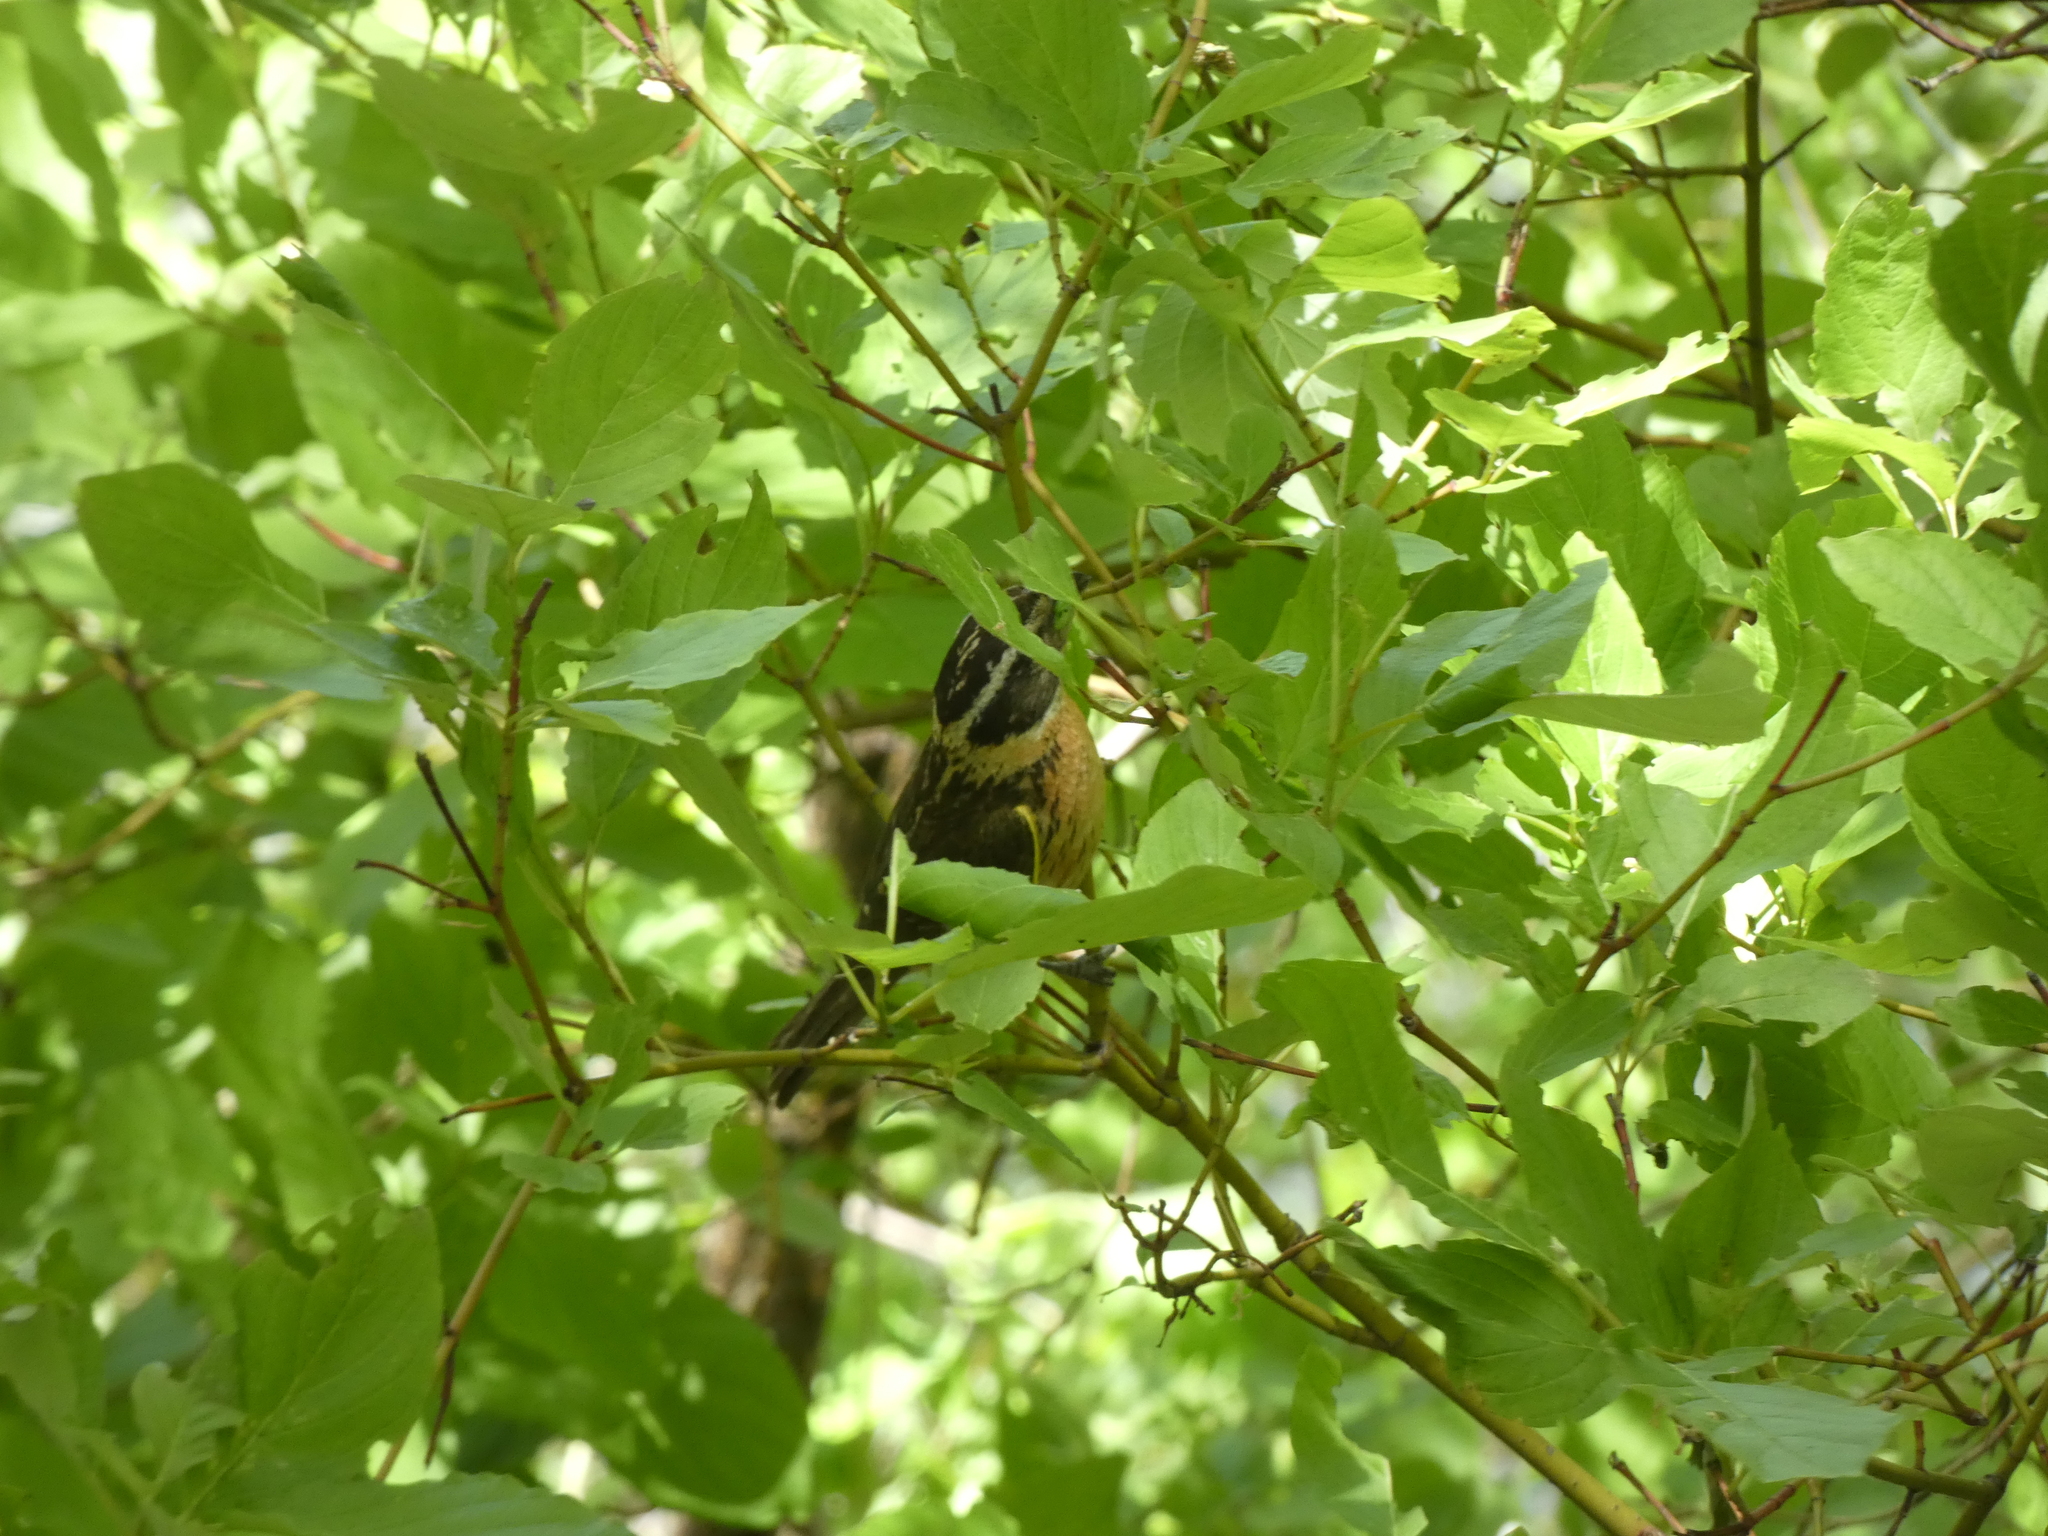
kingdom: Animalia
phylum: Chordata
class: Aves
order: Passeriformes
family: Cardinalidae
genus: Pheucticus
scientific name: Pheucticus melanocephalus
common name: Black-headed grosbeak
